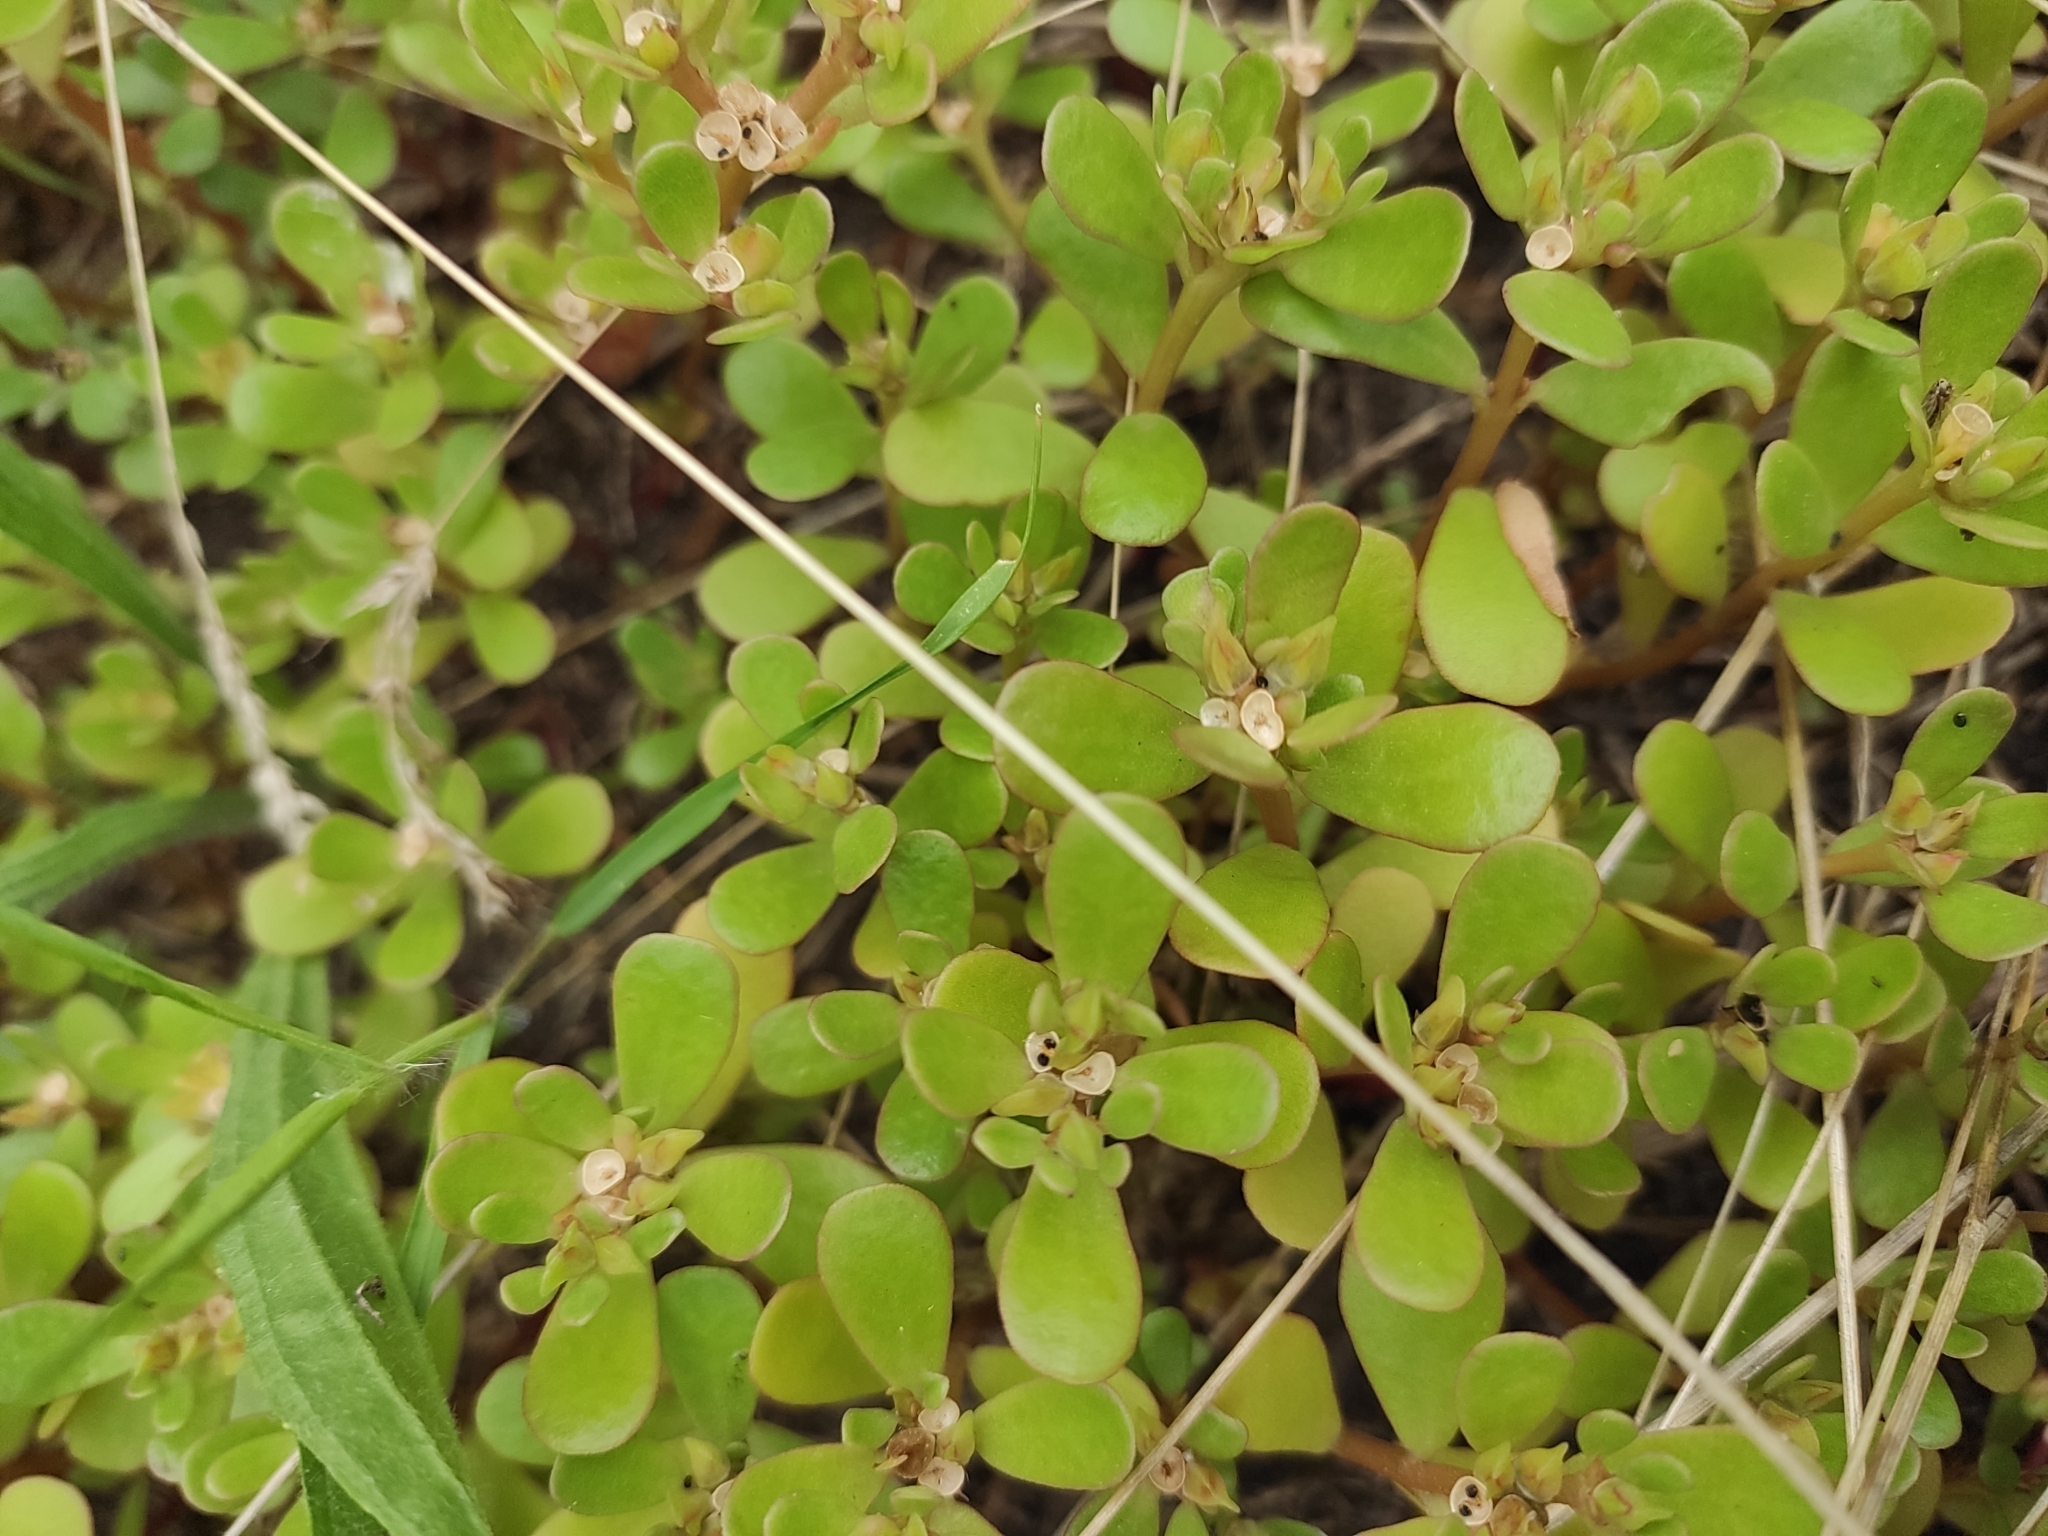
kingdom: Plantae
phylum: Tracheophyta
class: Magnoliopsida
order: Caryophyllales
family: Portulacaceae
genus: Portulaca
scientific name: Portulaca oleracea
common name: Common purslane
